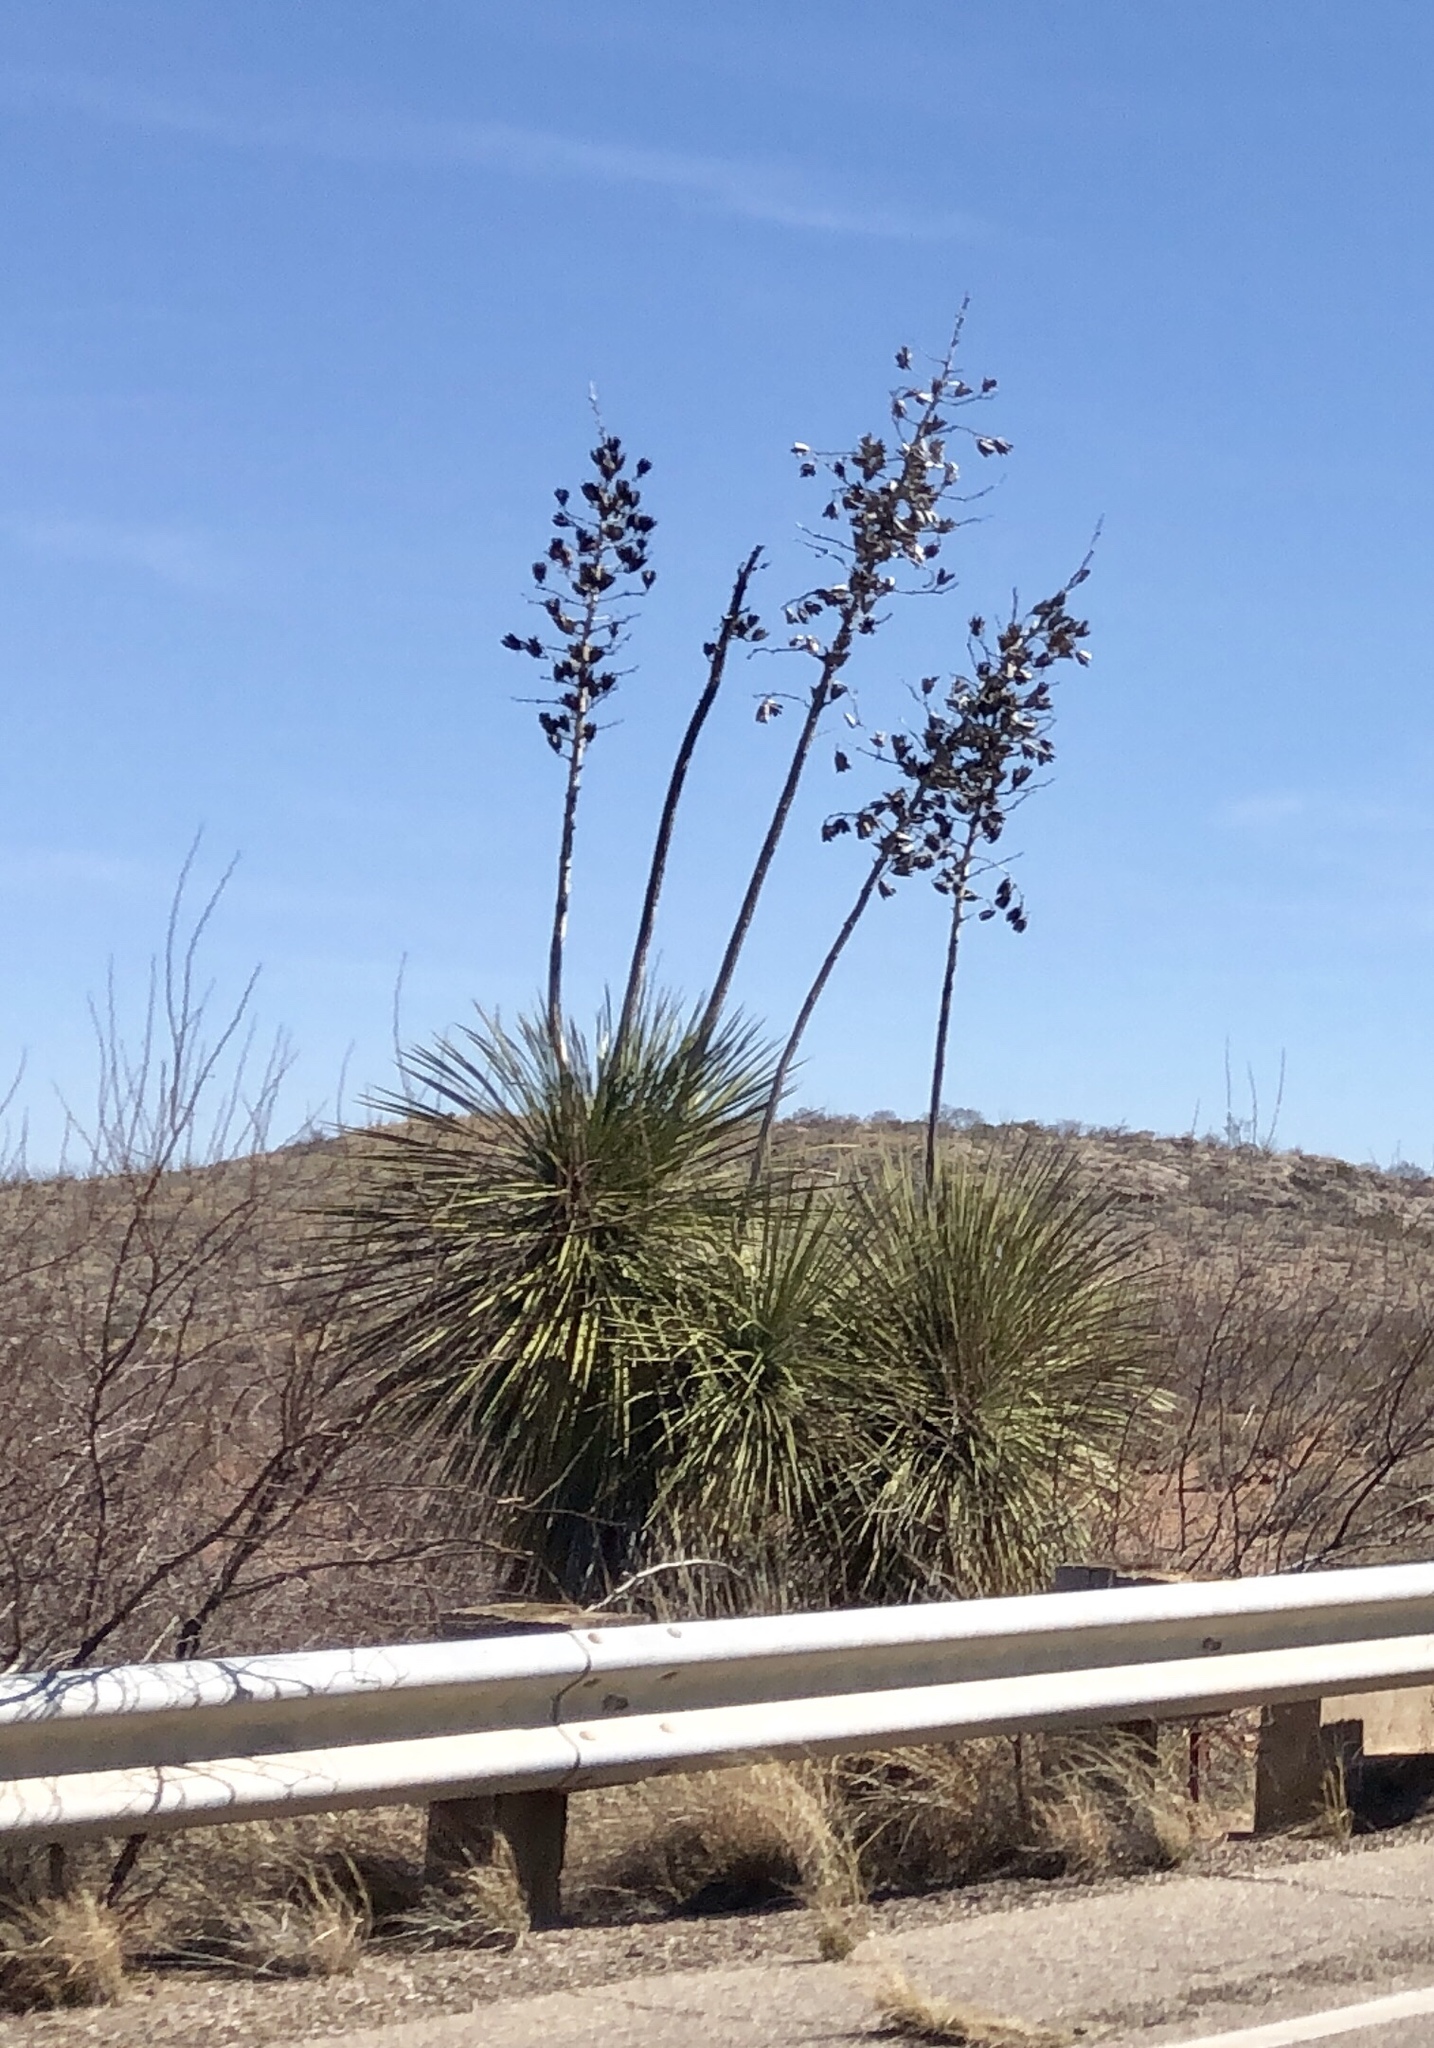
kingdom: Plantae
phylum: Tracheophyta
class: Liliopsida
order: Asparagales
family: Asparagaceae
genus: Yucca
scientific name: Yucca elata
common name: Palmella
